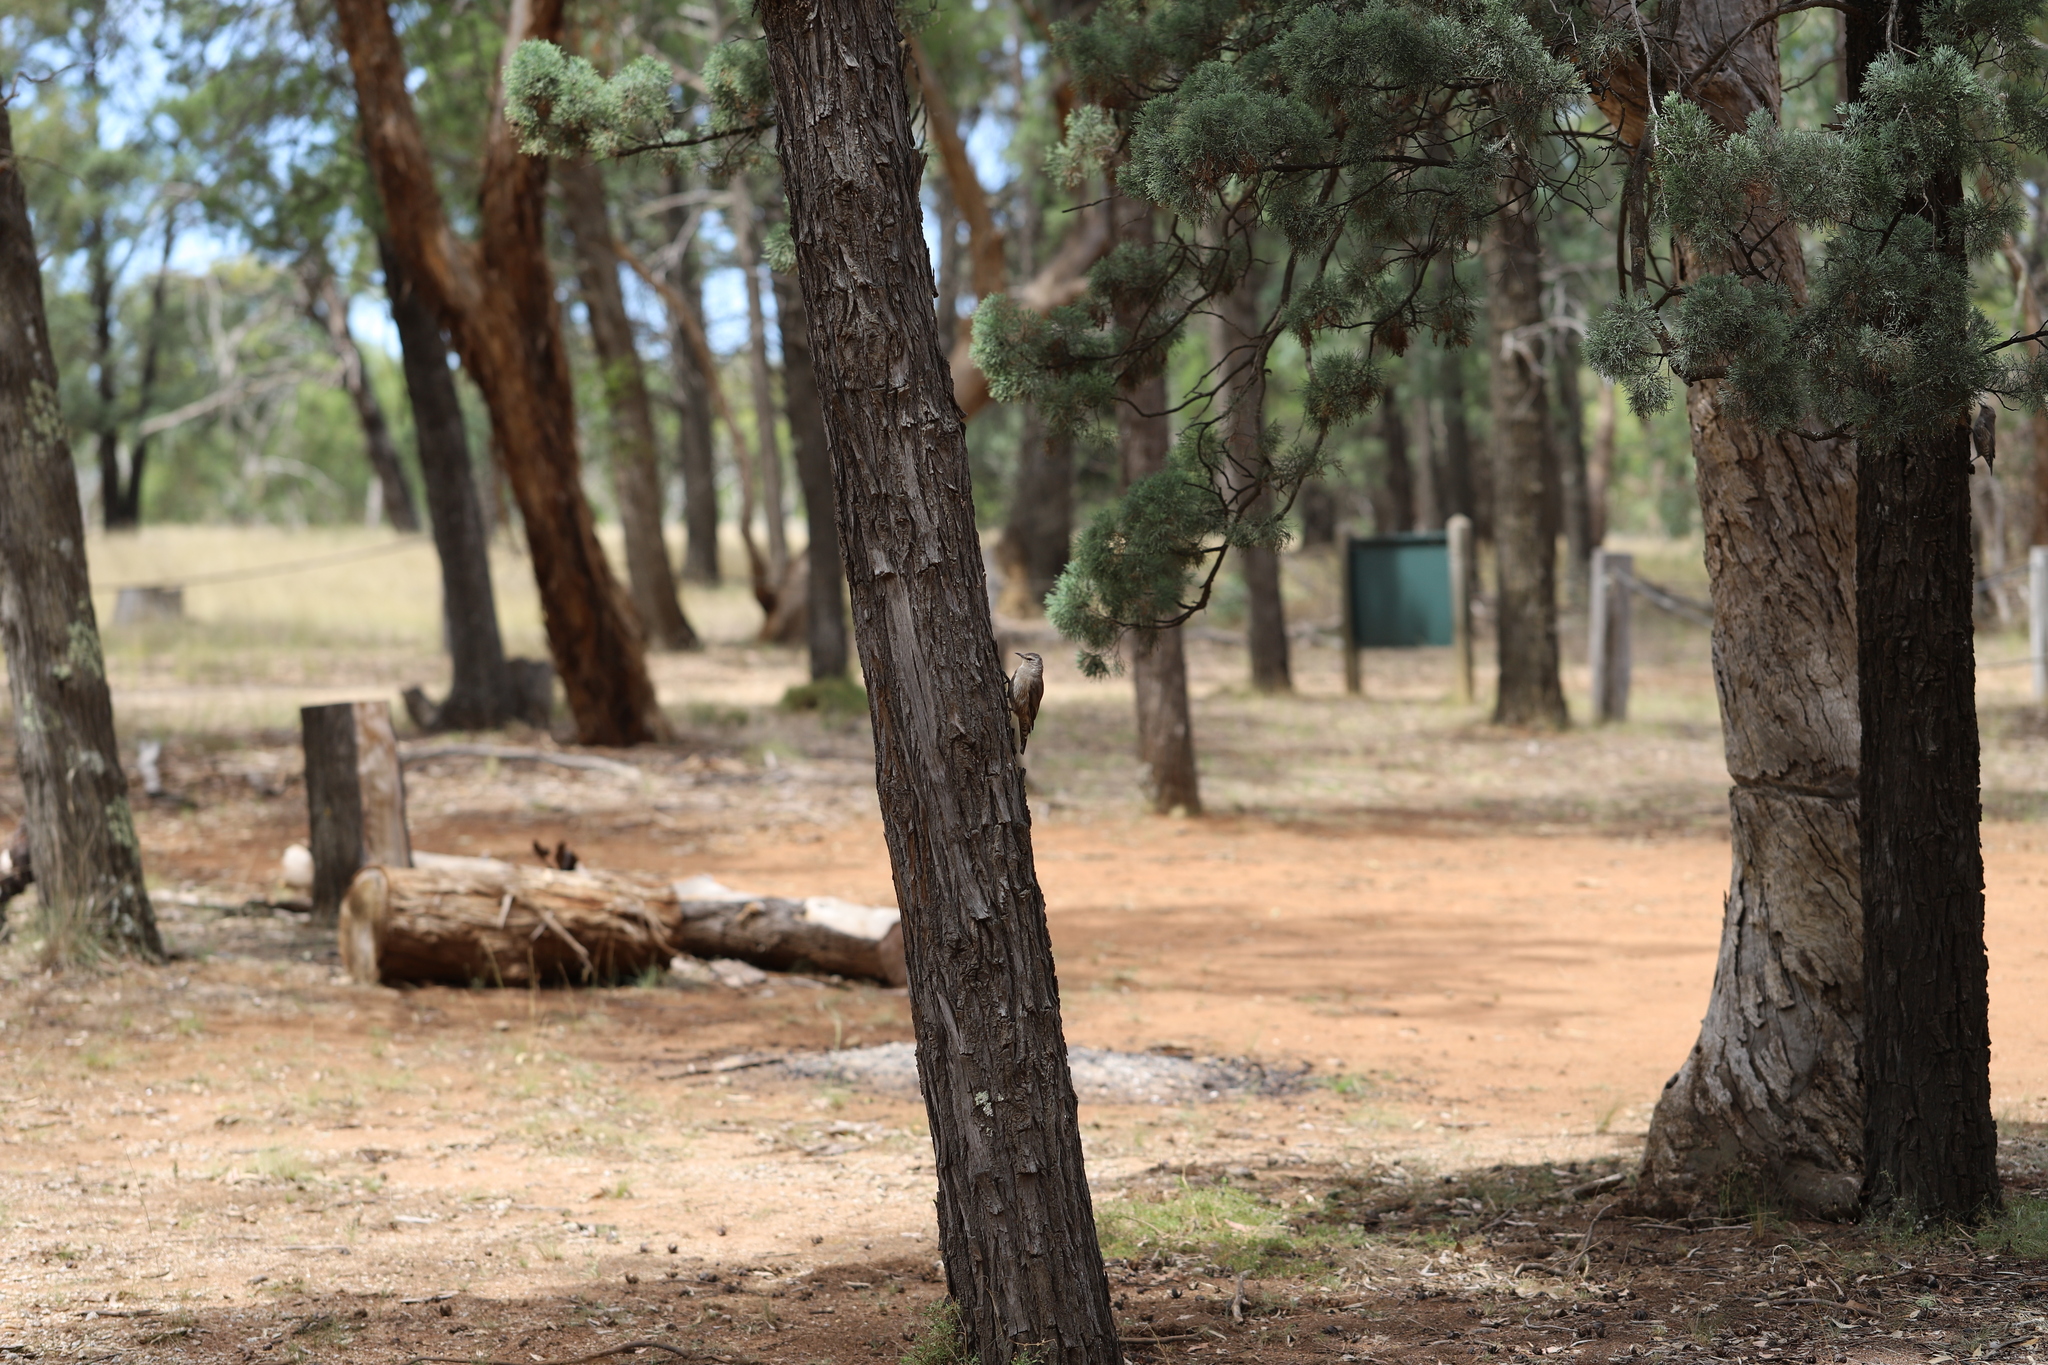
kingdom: Animalia
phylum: Chordata
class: Aves
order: Passeriformes
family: Climacteridae
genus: Climacteris
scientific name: Climacteris picumnus
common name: Brown treecreeper
